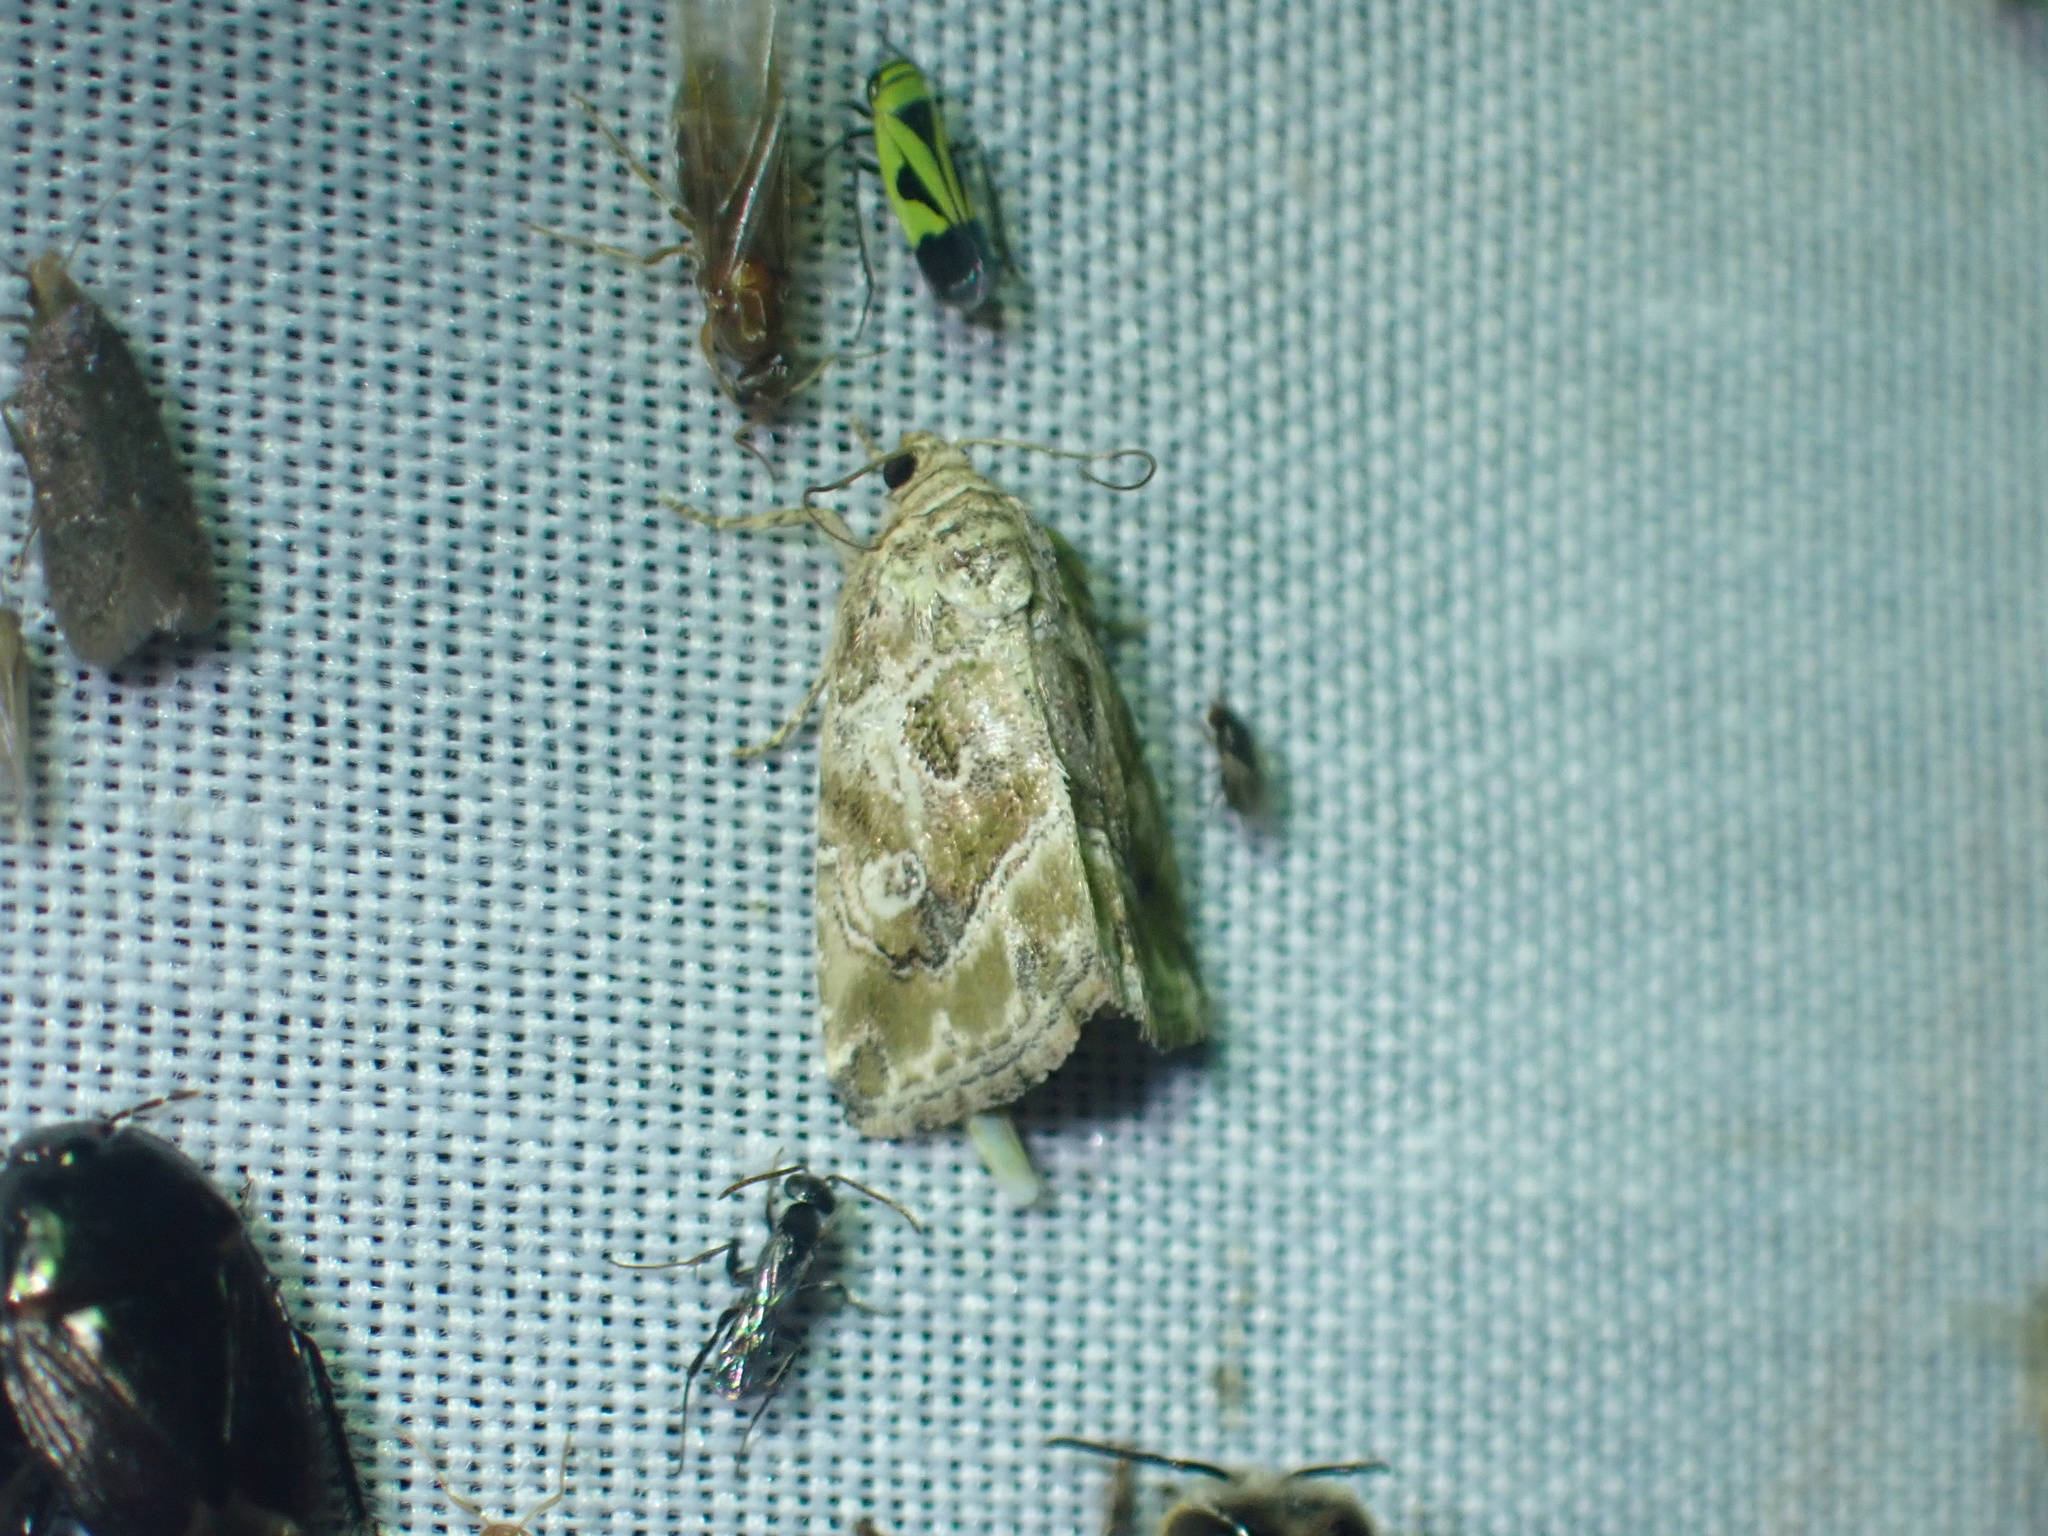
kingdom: Animalia
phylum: Arthropoda
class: Insecta
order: Lepidoptera
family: Crambidae
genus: Hellula
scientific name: Hellula undalis
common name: Cabbage webworm
